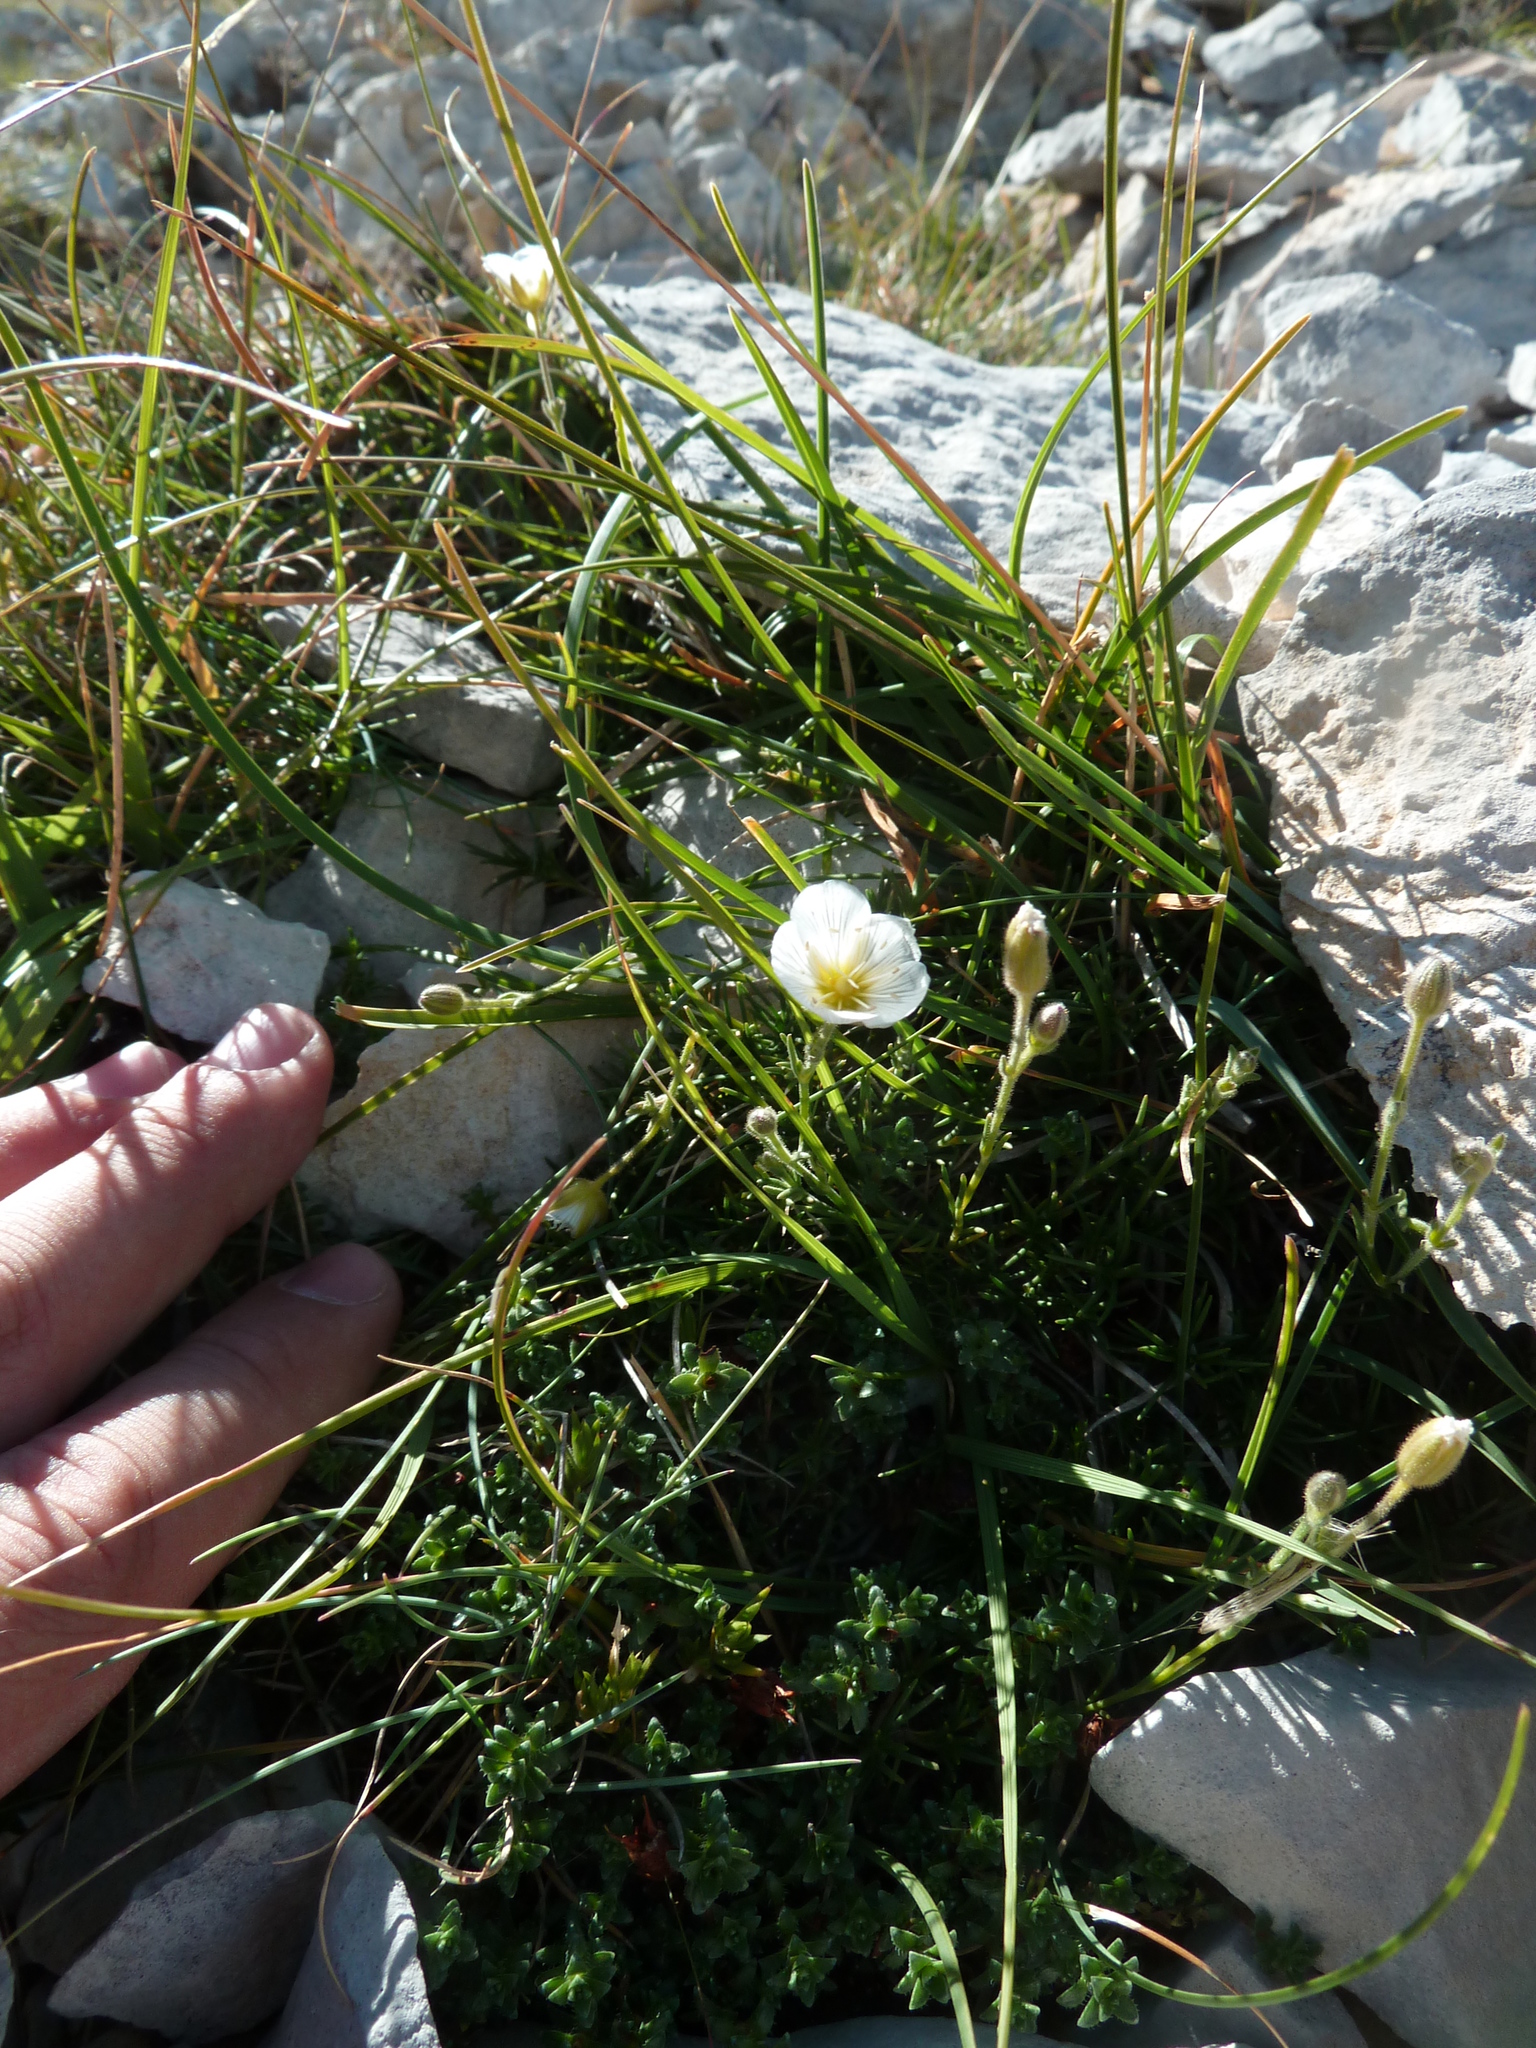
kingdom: Plantae
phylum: Tracheophyta
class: Magnoliopsida
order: Caryophyllales
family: Caryophyllaceae
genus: Cherleria
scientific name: Cherleria capillacea
